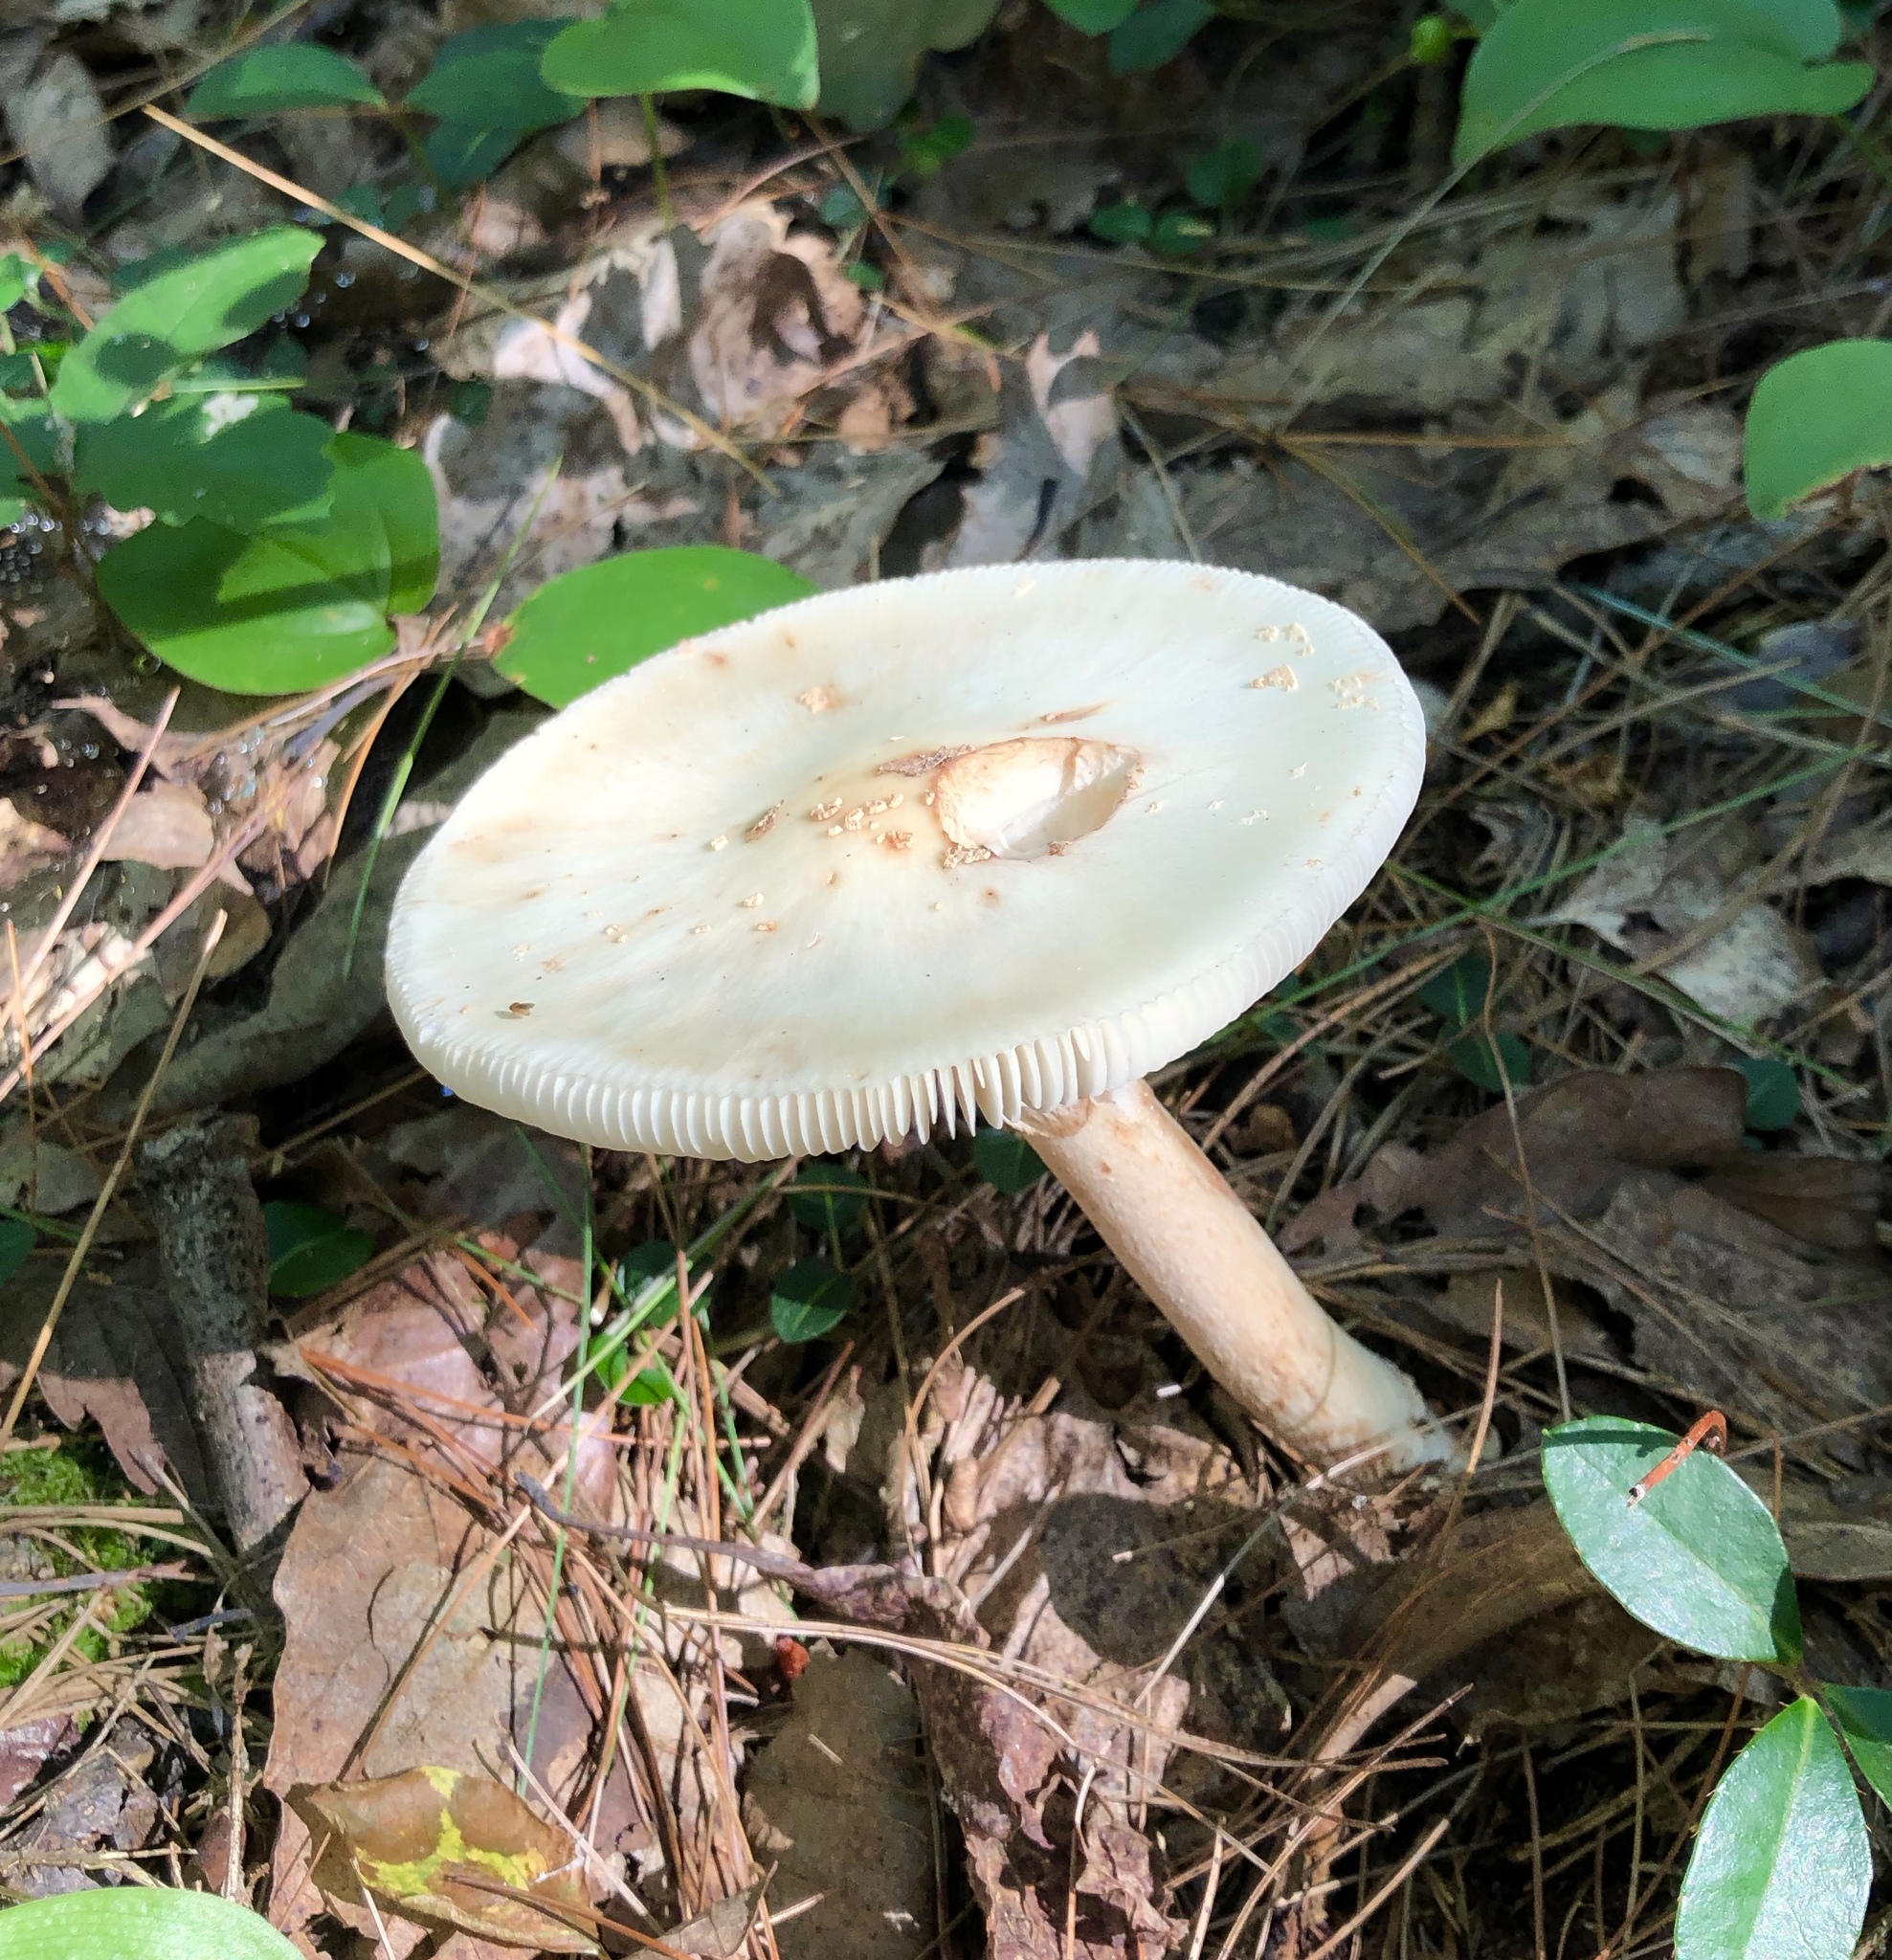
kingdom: Fungi
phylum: Basidiomycota
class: Agaricomycetes
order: Agaricales
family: Amanitaceae
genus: Amanita
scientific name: Amanita brunnescens
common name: Brown american star-footed amanita
